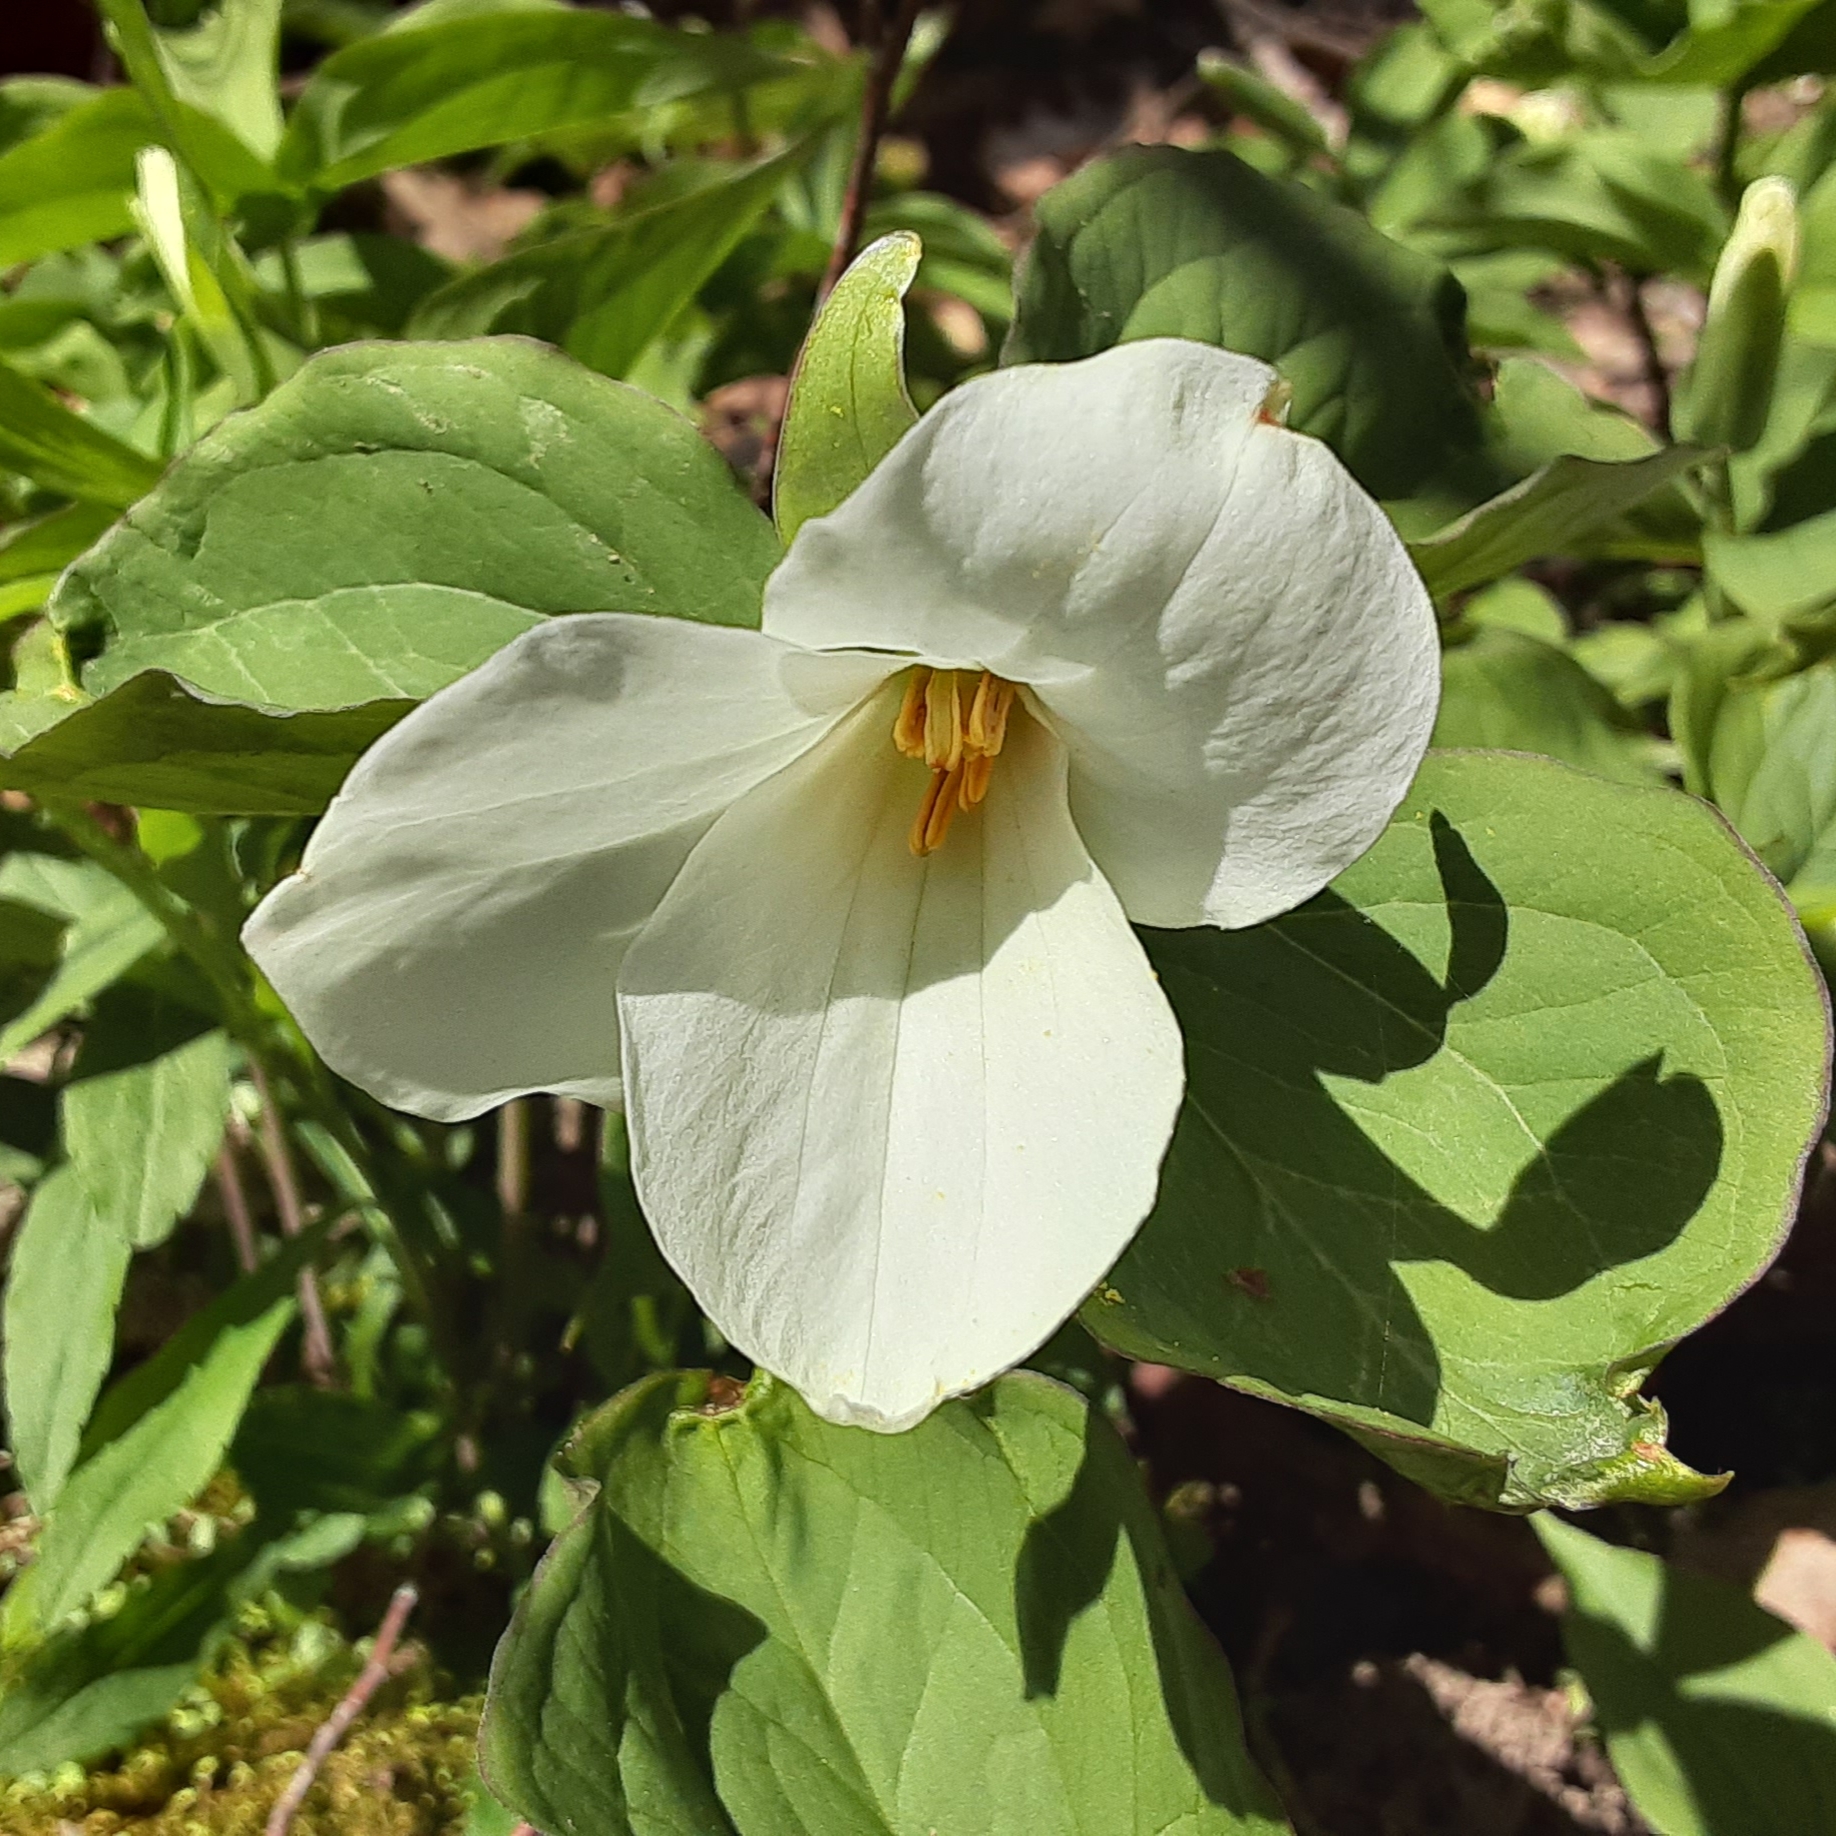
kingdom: Plantae
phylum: Tracheophyta
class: Liliopsida
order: Liliales
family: Melanthiaceae
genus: Trillium
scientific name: Trillium grandiflorum
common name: Great white trillium
